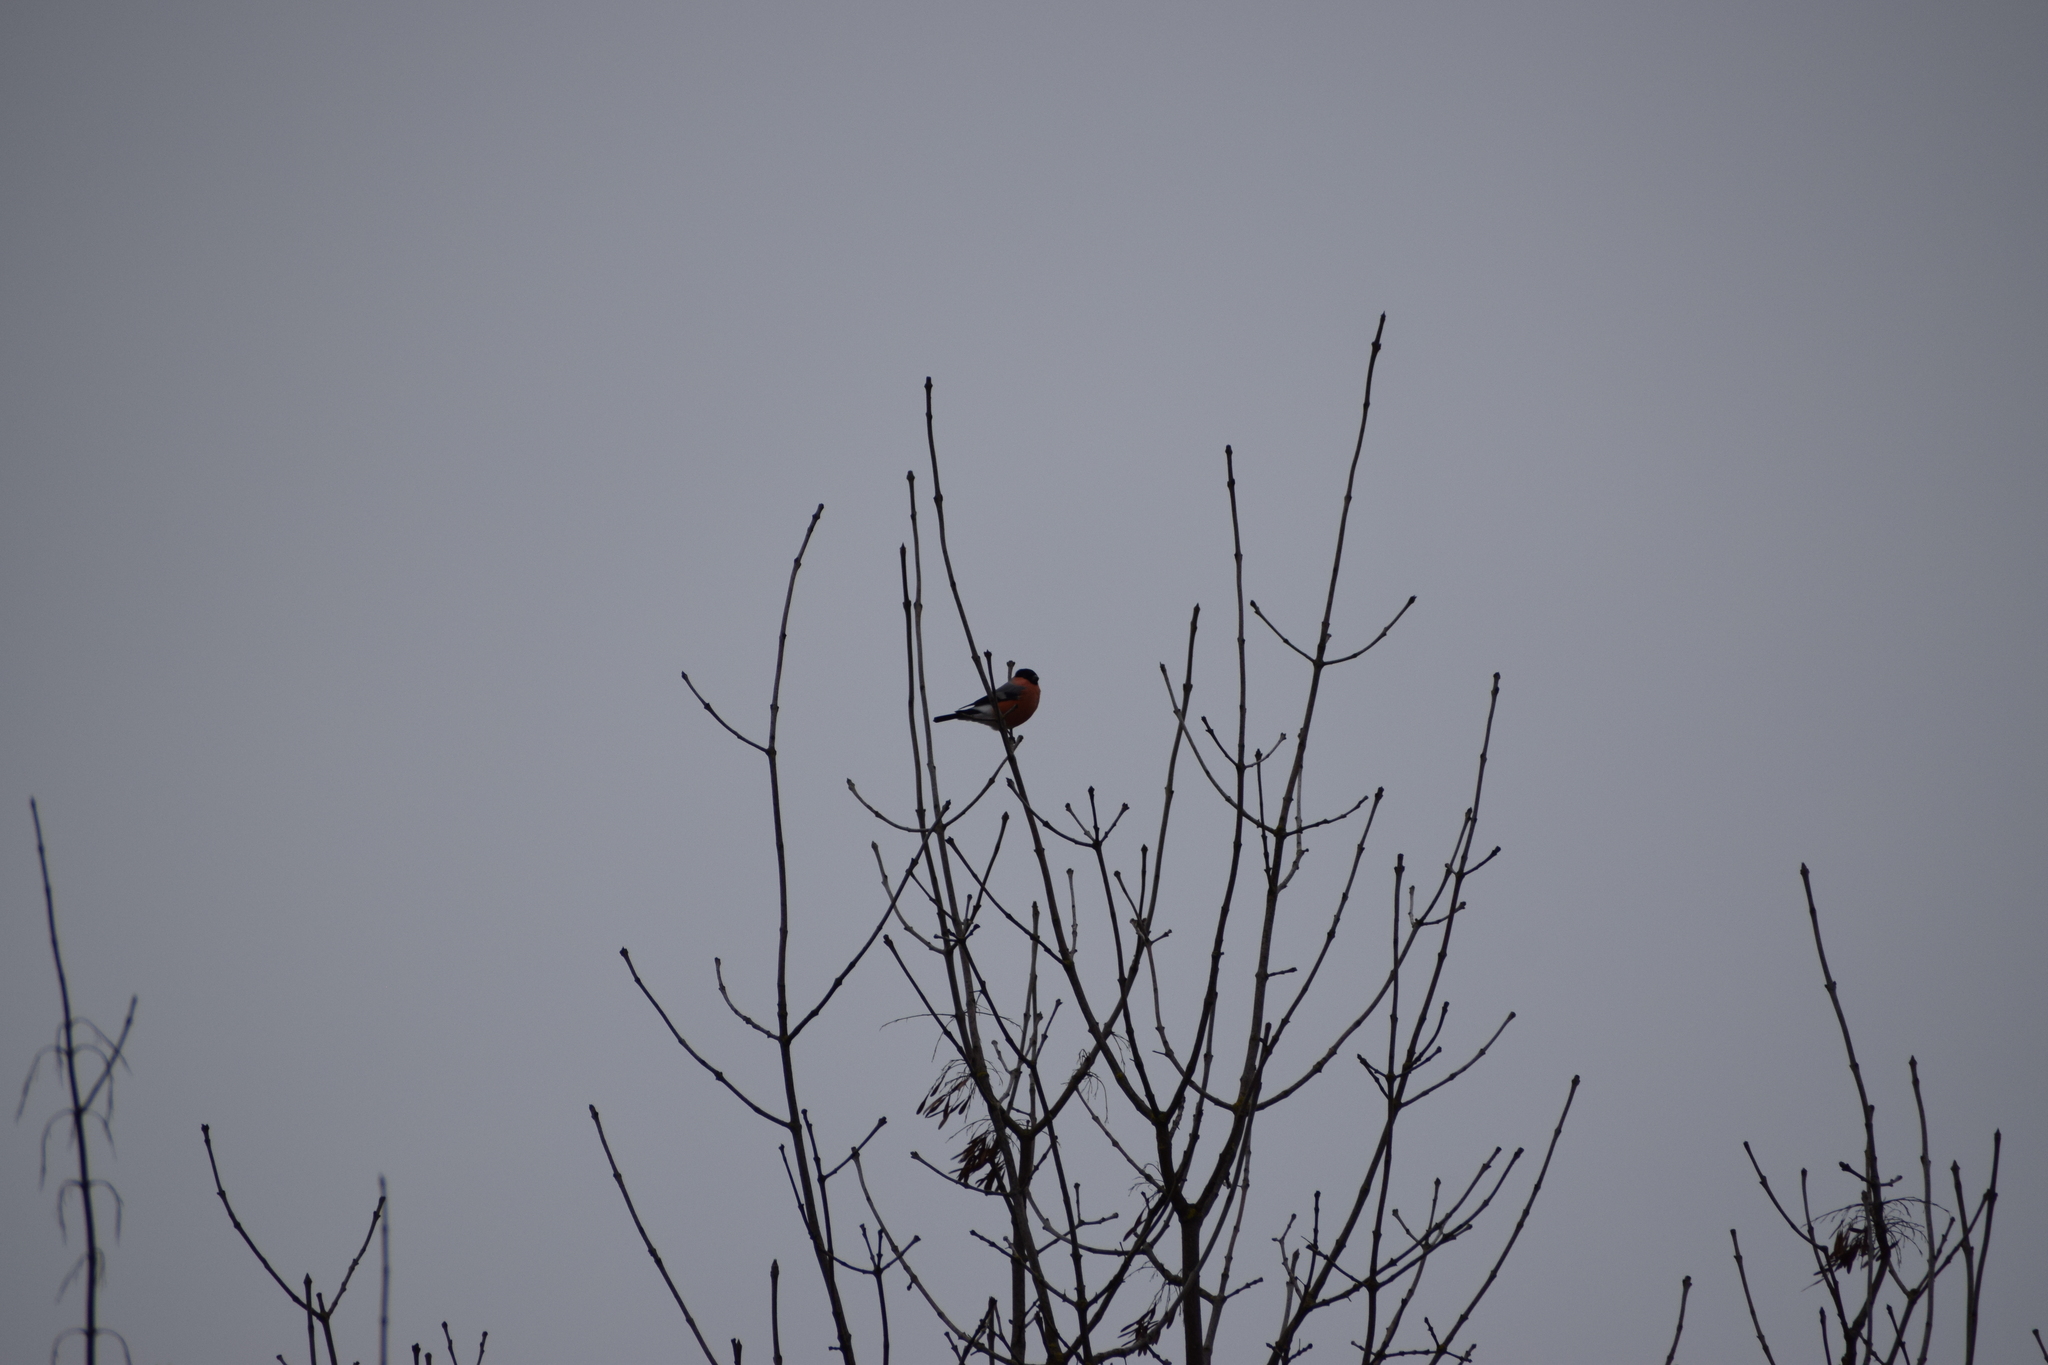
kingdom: Animalia
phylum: Chordata
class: Aves
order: Passeriformes
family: Fringillidae
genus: Pyrrhula
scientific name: Pyrrhula pyrrhula
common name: Eurasian bullfinch
